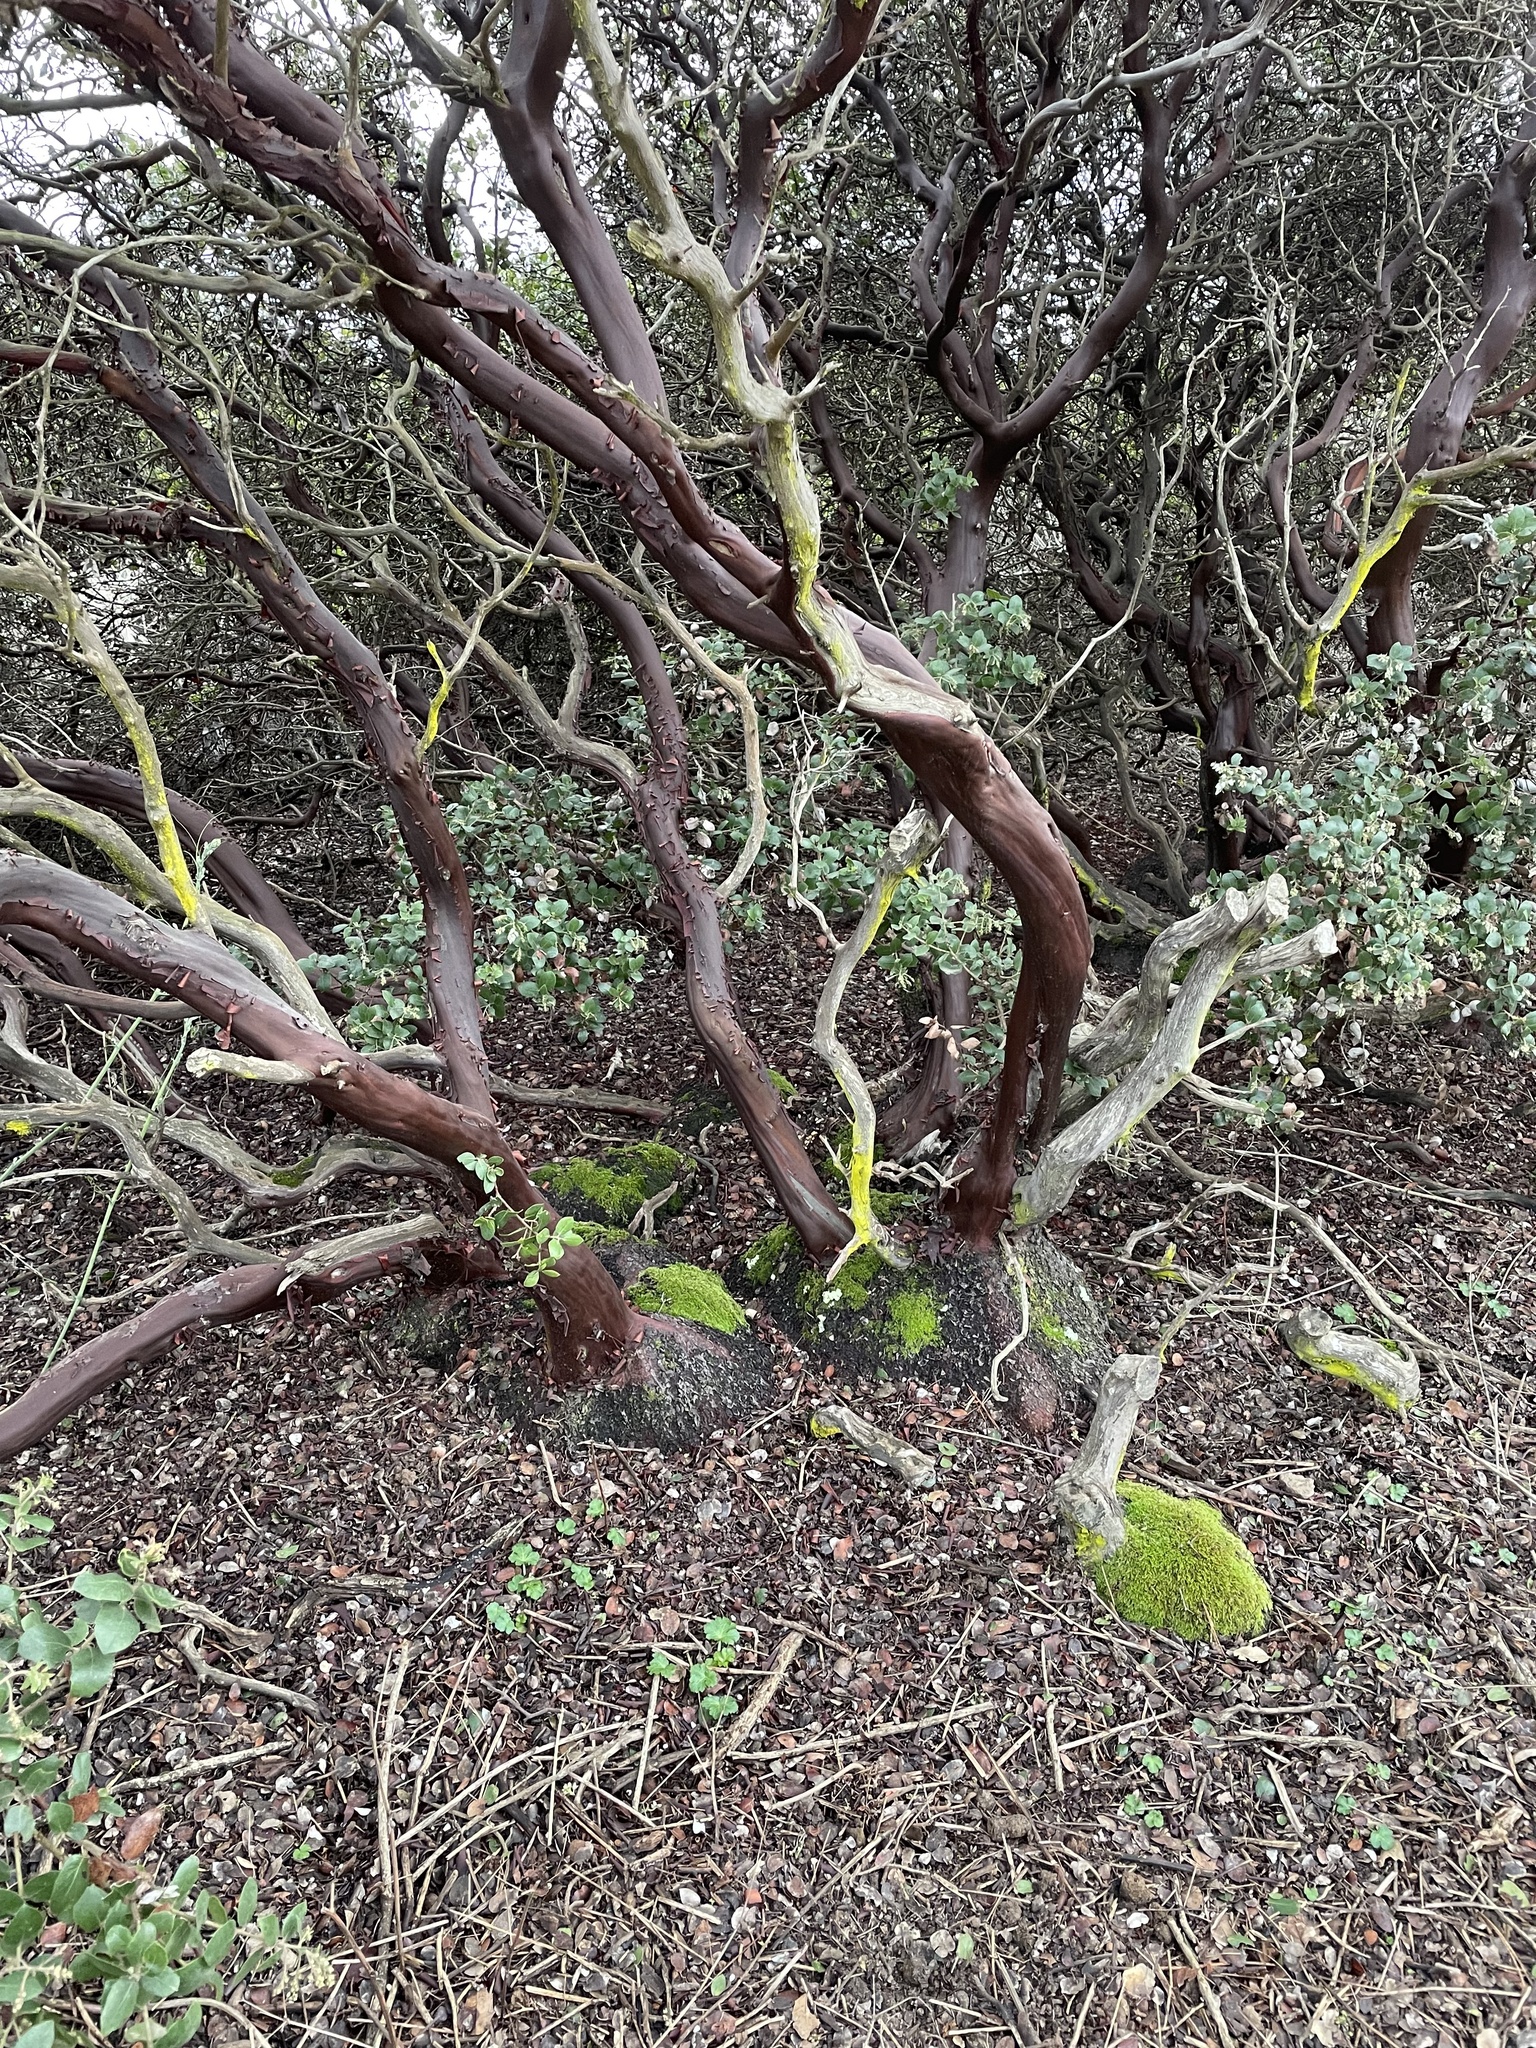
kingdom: Plantae
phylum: Tracheophyta
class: Magnoliopsida
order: Ericales
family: Ericaceae
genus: Arctostaphylos
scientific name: Arctostaphylos crustacea
